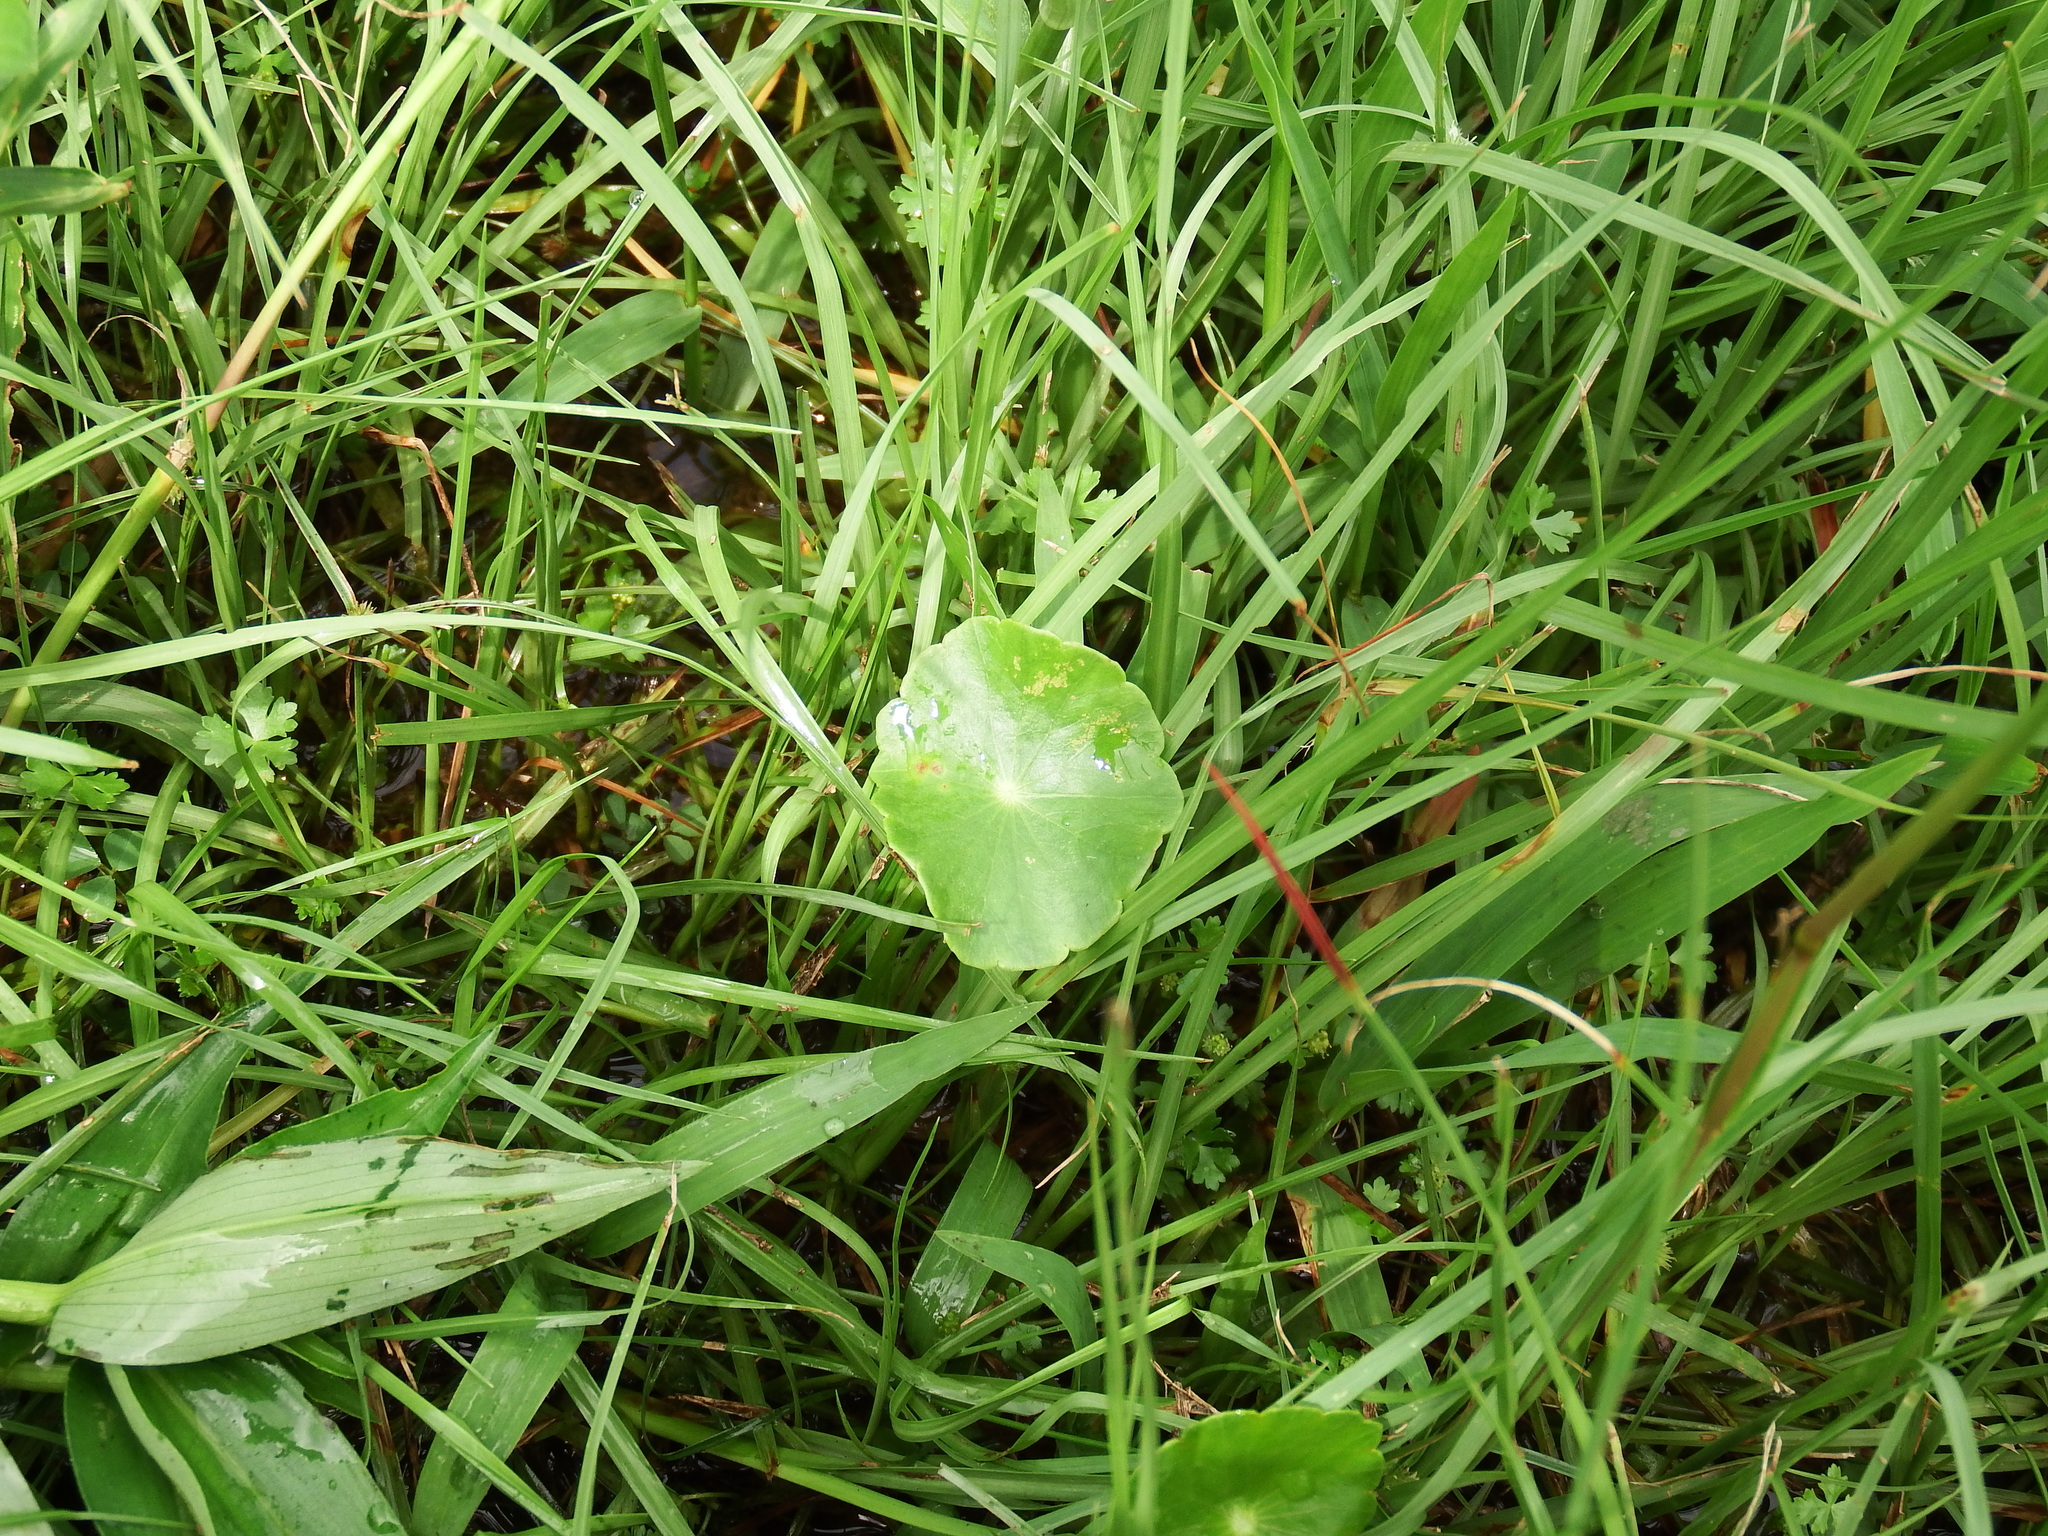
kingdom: Plantae
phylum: Tracheophyta
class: Magnoliopsida
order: Apiales
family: Araliaceae
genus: Hydrocotyle
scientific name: Hydrocotyle verticillata
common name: Whorled marshpennywort
